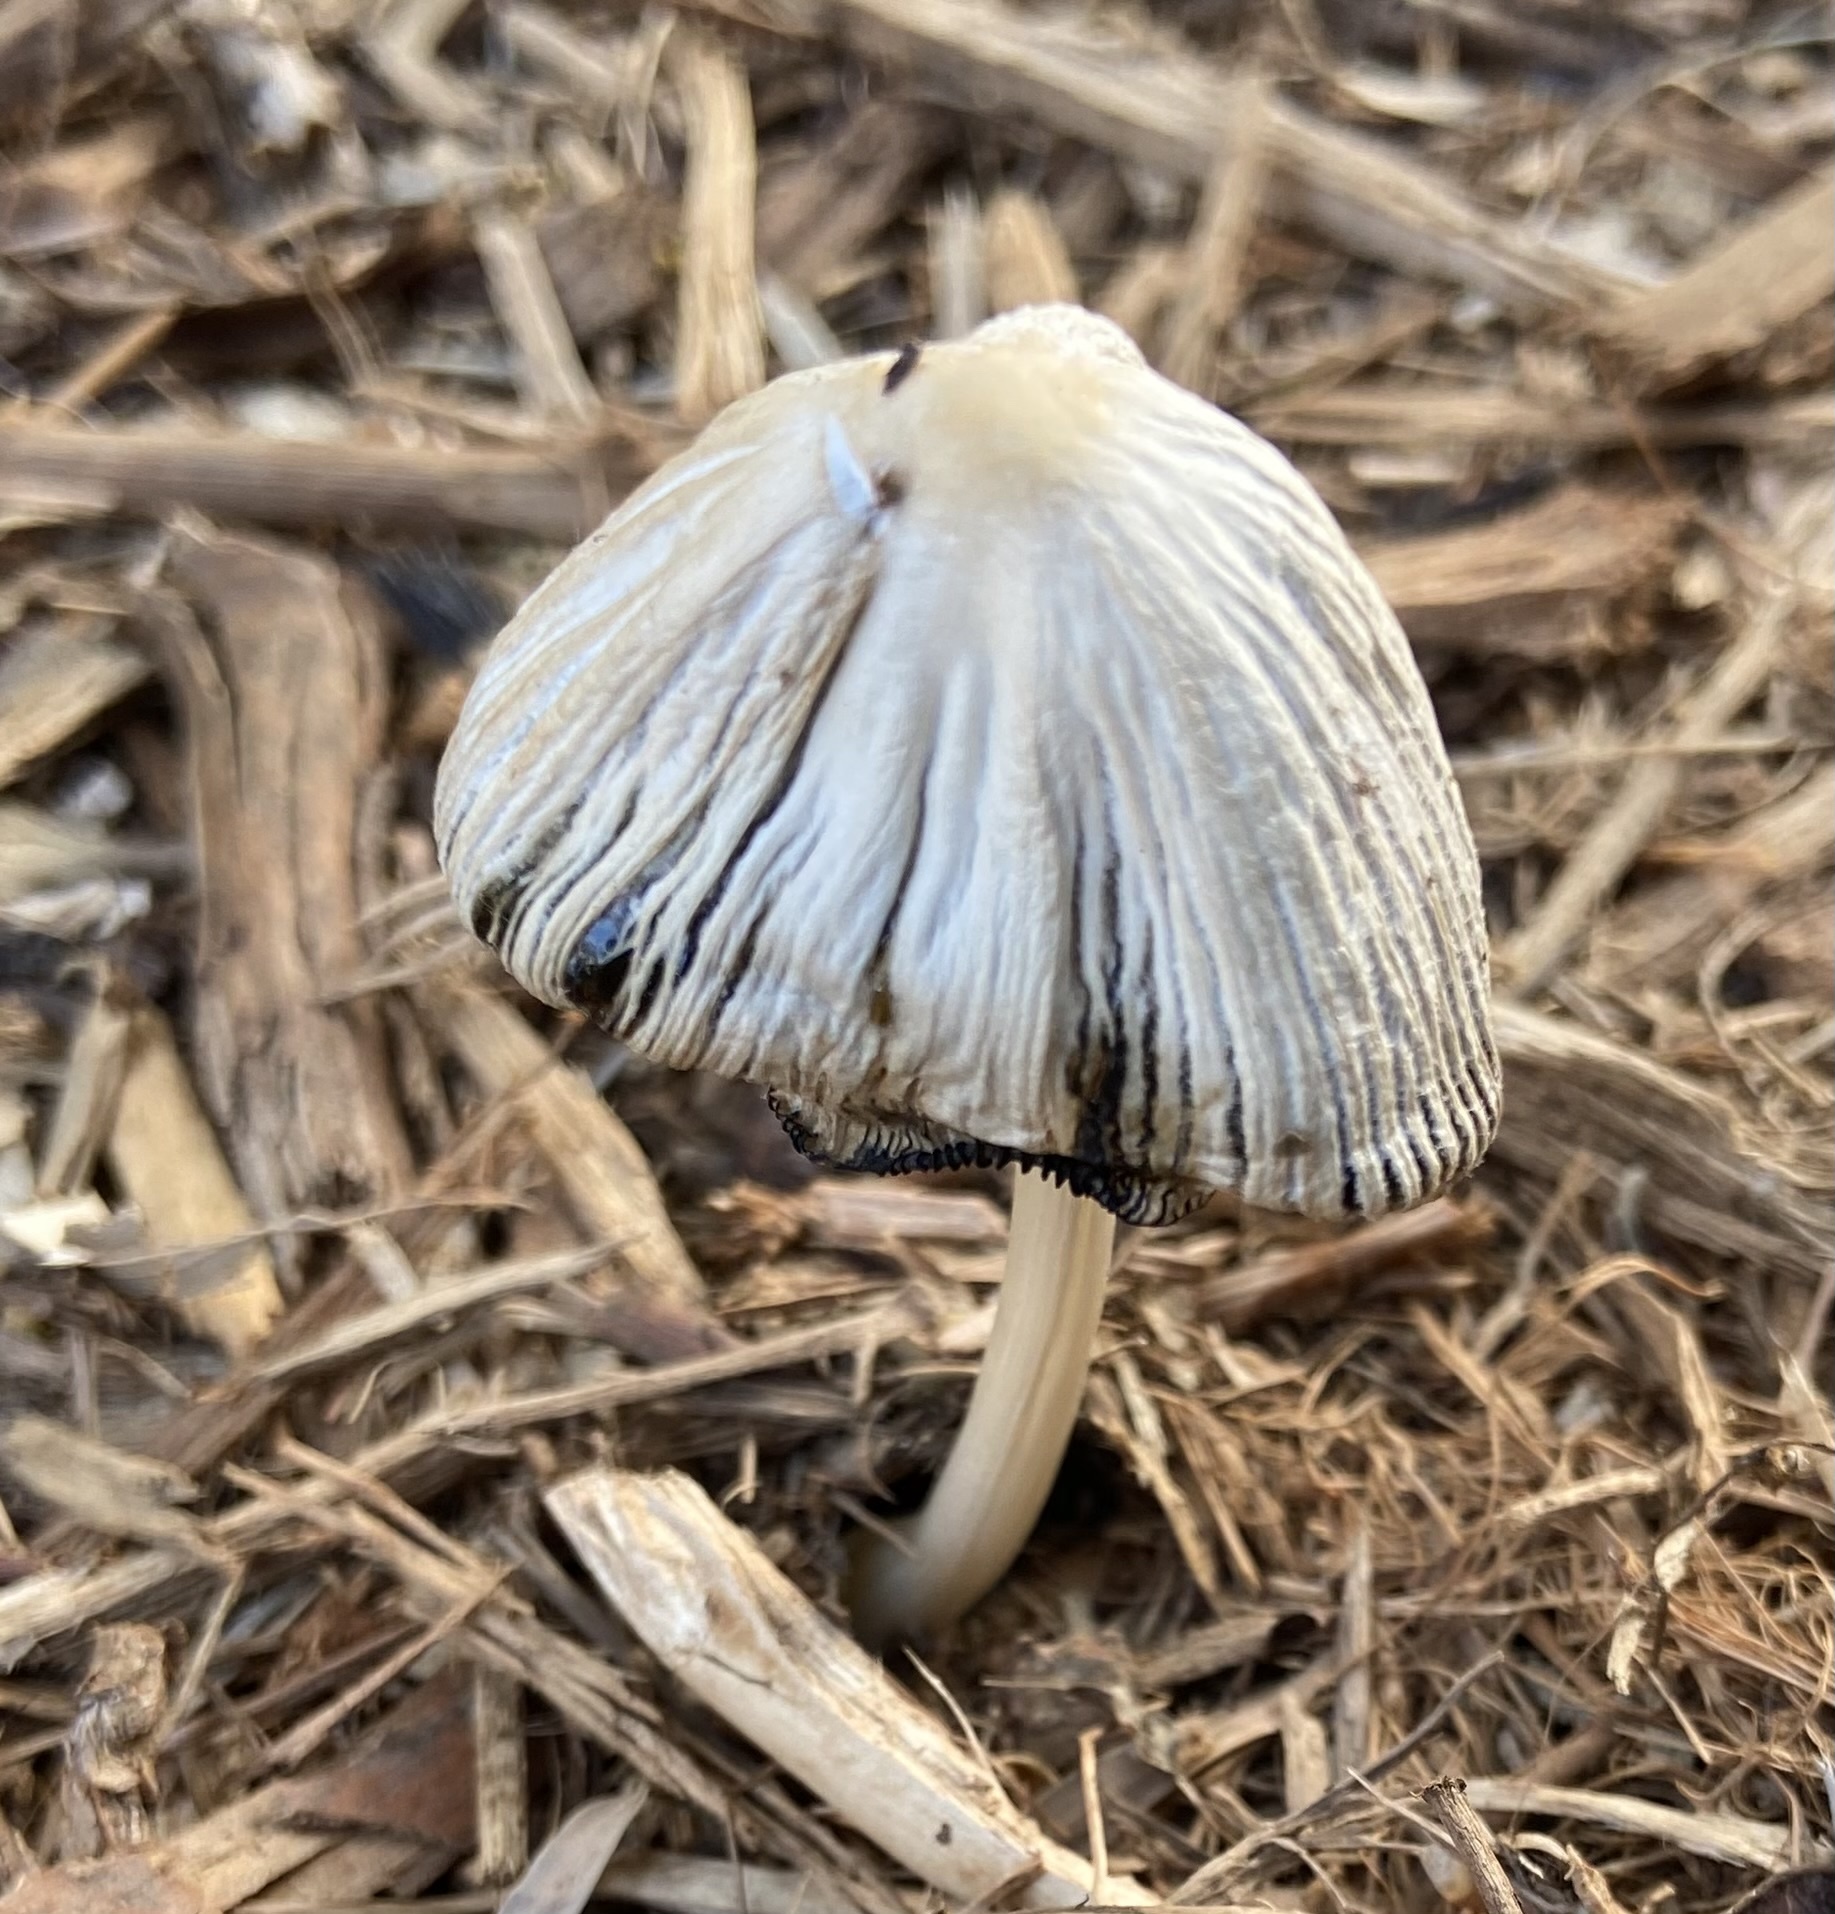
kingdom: Fungi
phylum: Basidiomycota
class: Agaricomycetes
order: Agaricales
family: Psathyrellaceae
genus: Coprinellus
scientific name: Coprinellus flocculosus
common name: Flocculose inkcap
